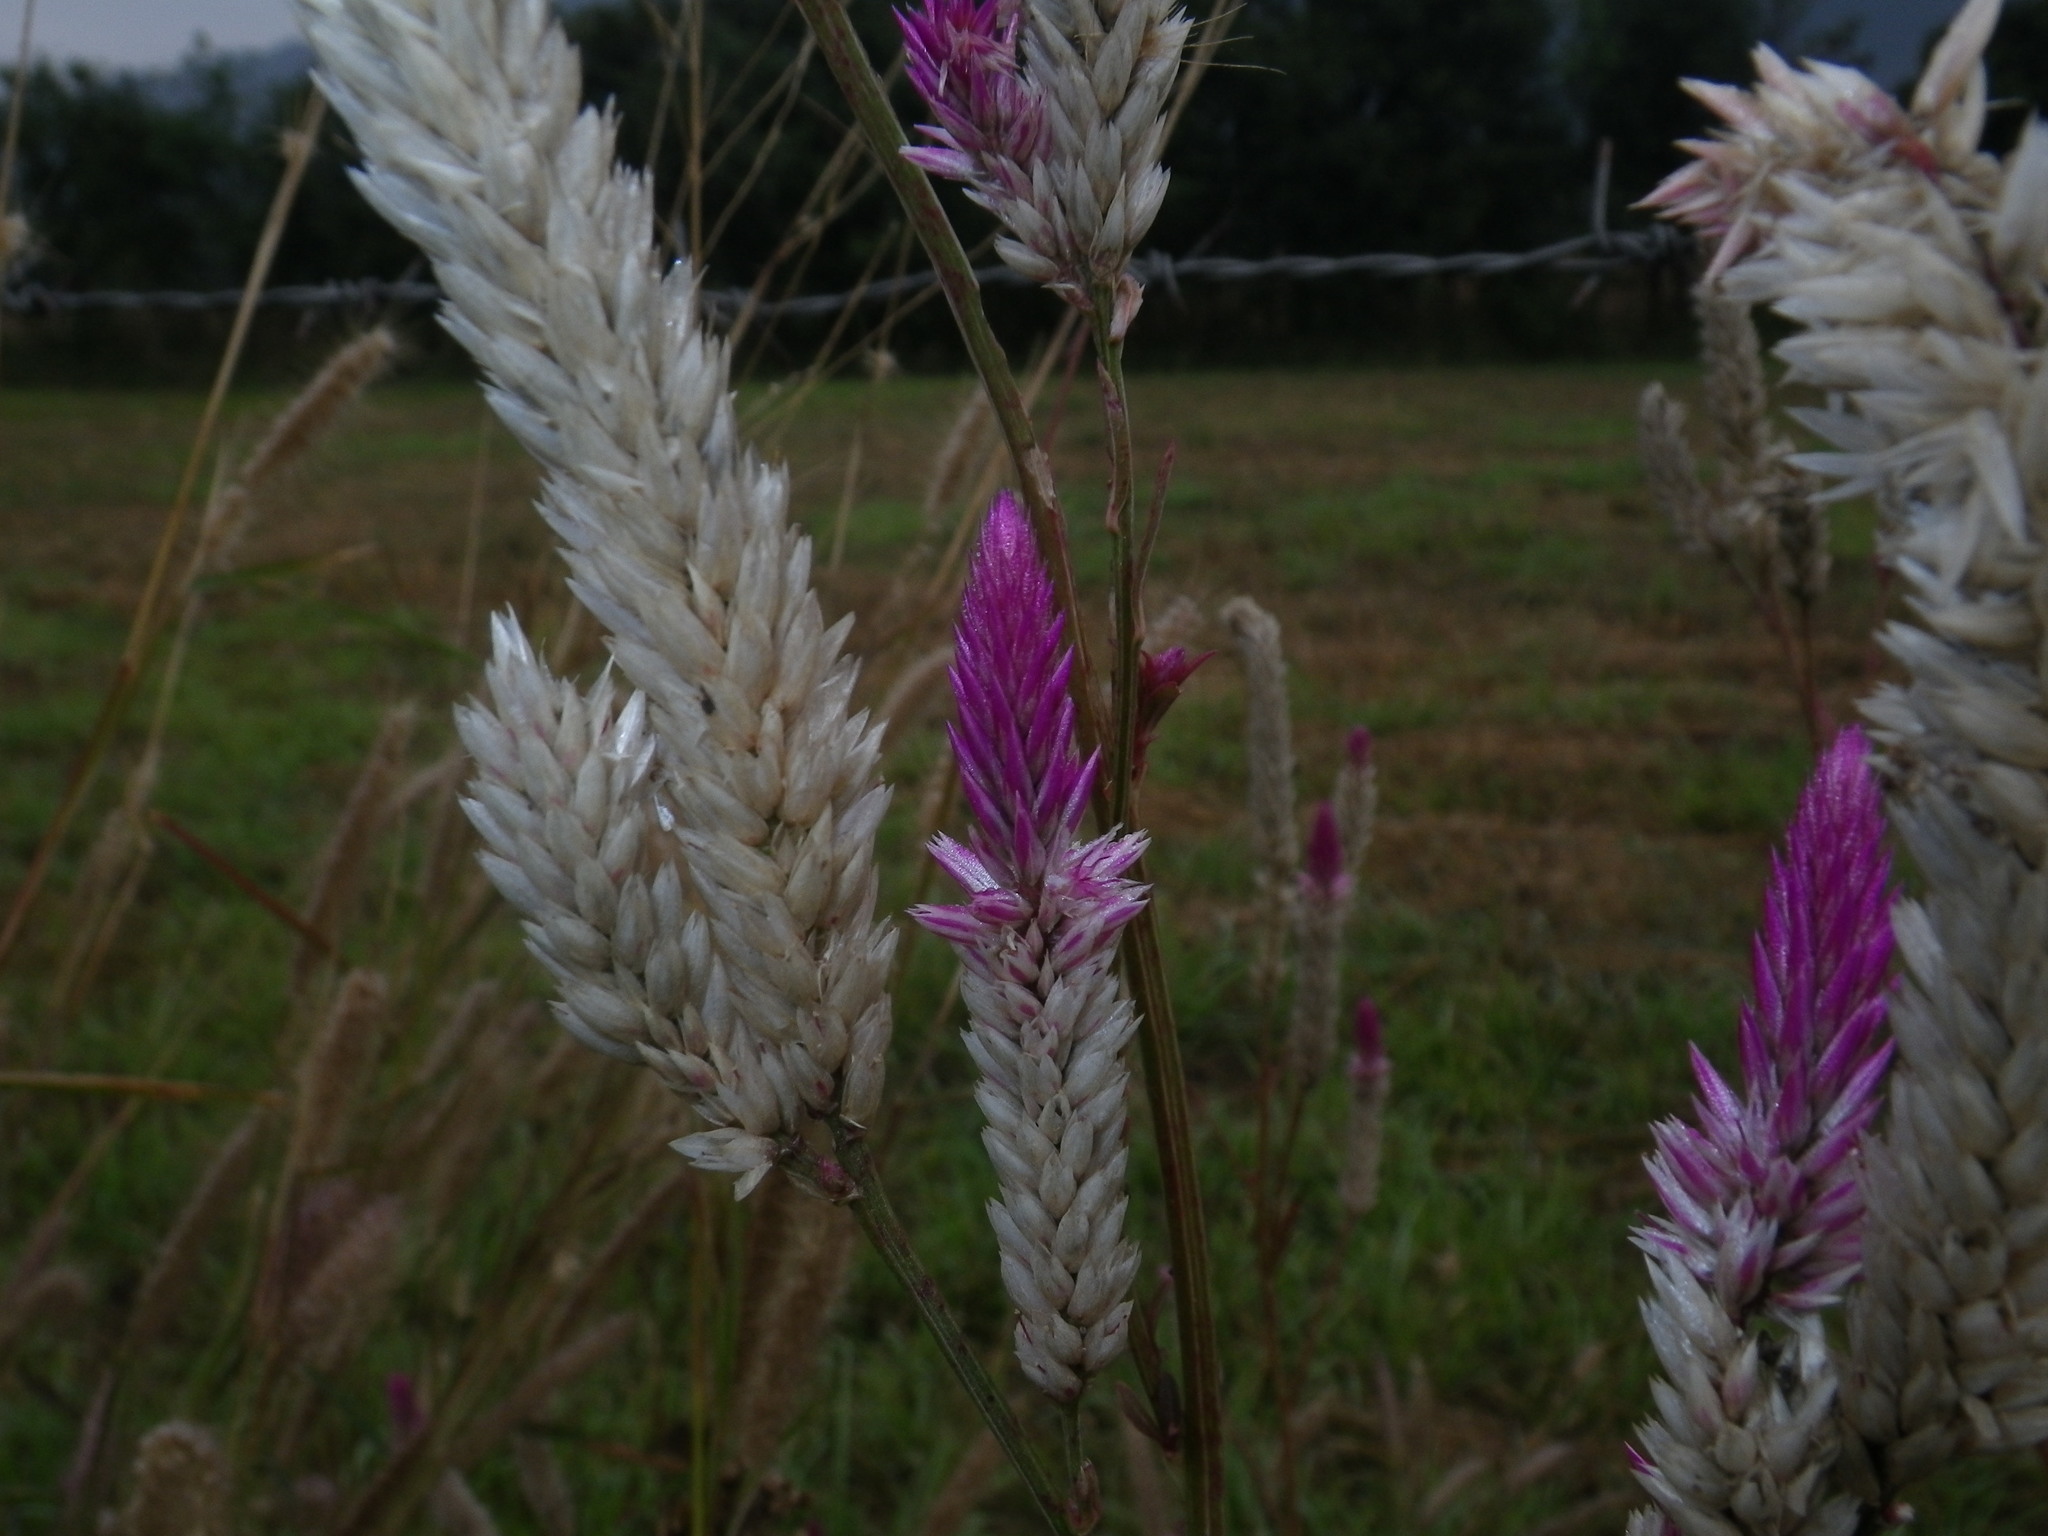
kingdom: Plantae
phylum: Tracheophyta
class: Magnoliopsida
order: Caryophyllales
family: Amaranthaceae
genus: Celosia
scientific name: Celosia argentea
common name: Feather cockscomb
